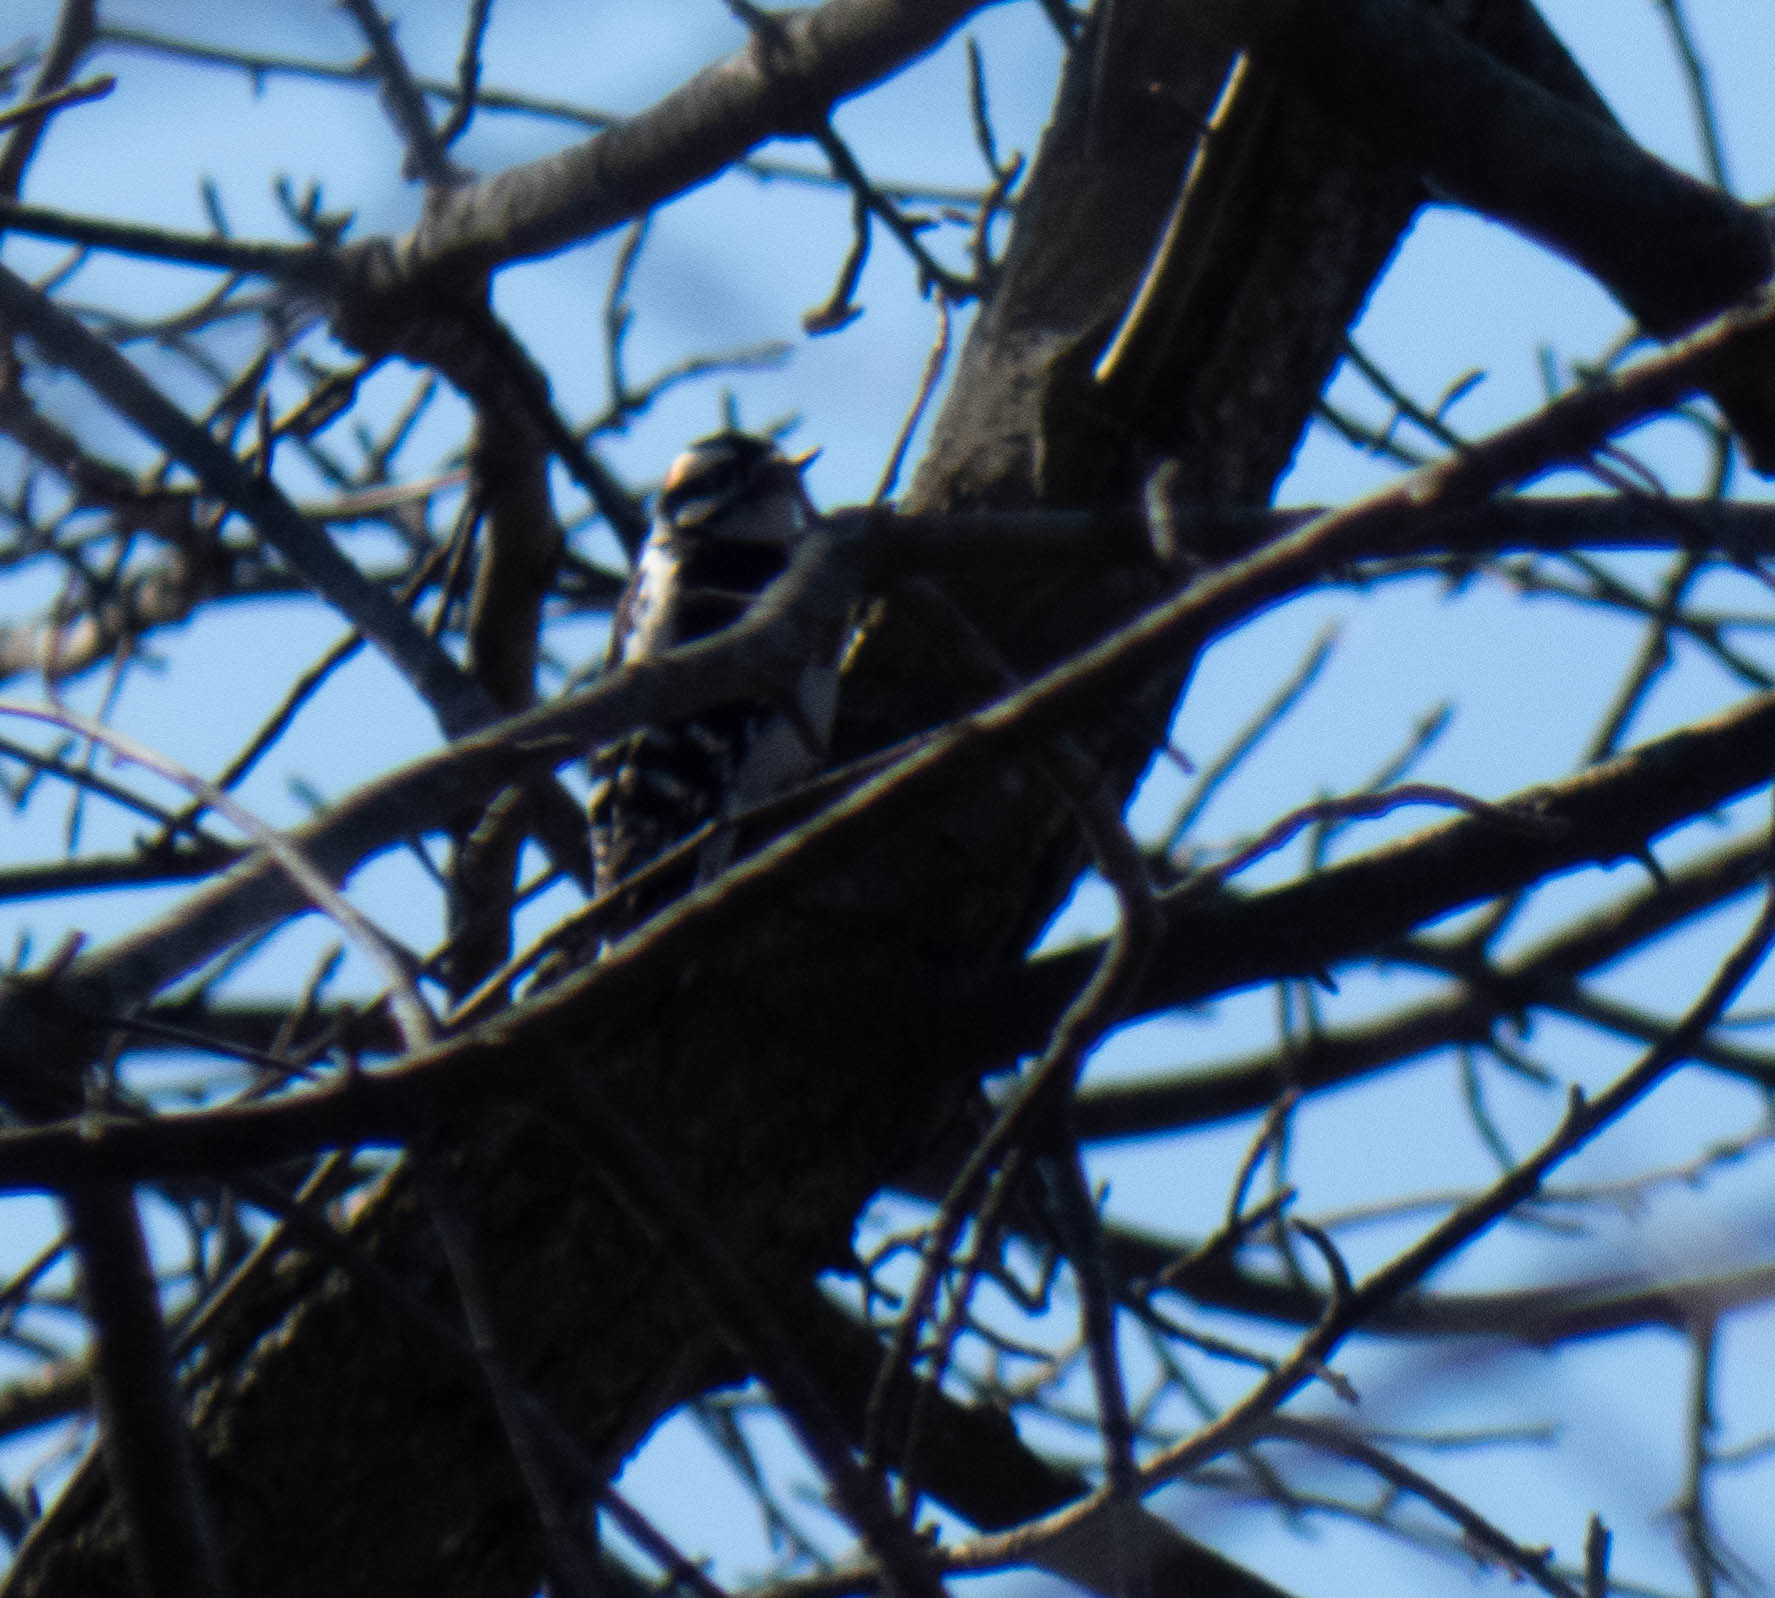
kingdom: Animalia
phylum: Chordata
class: Aves
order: Piciformes
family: Picidae
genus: Dryobates
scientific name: Dryobates pubescens
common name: Downy woodpecker
